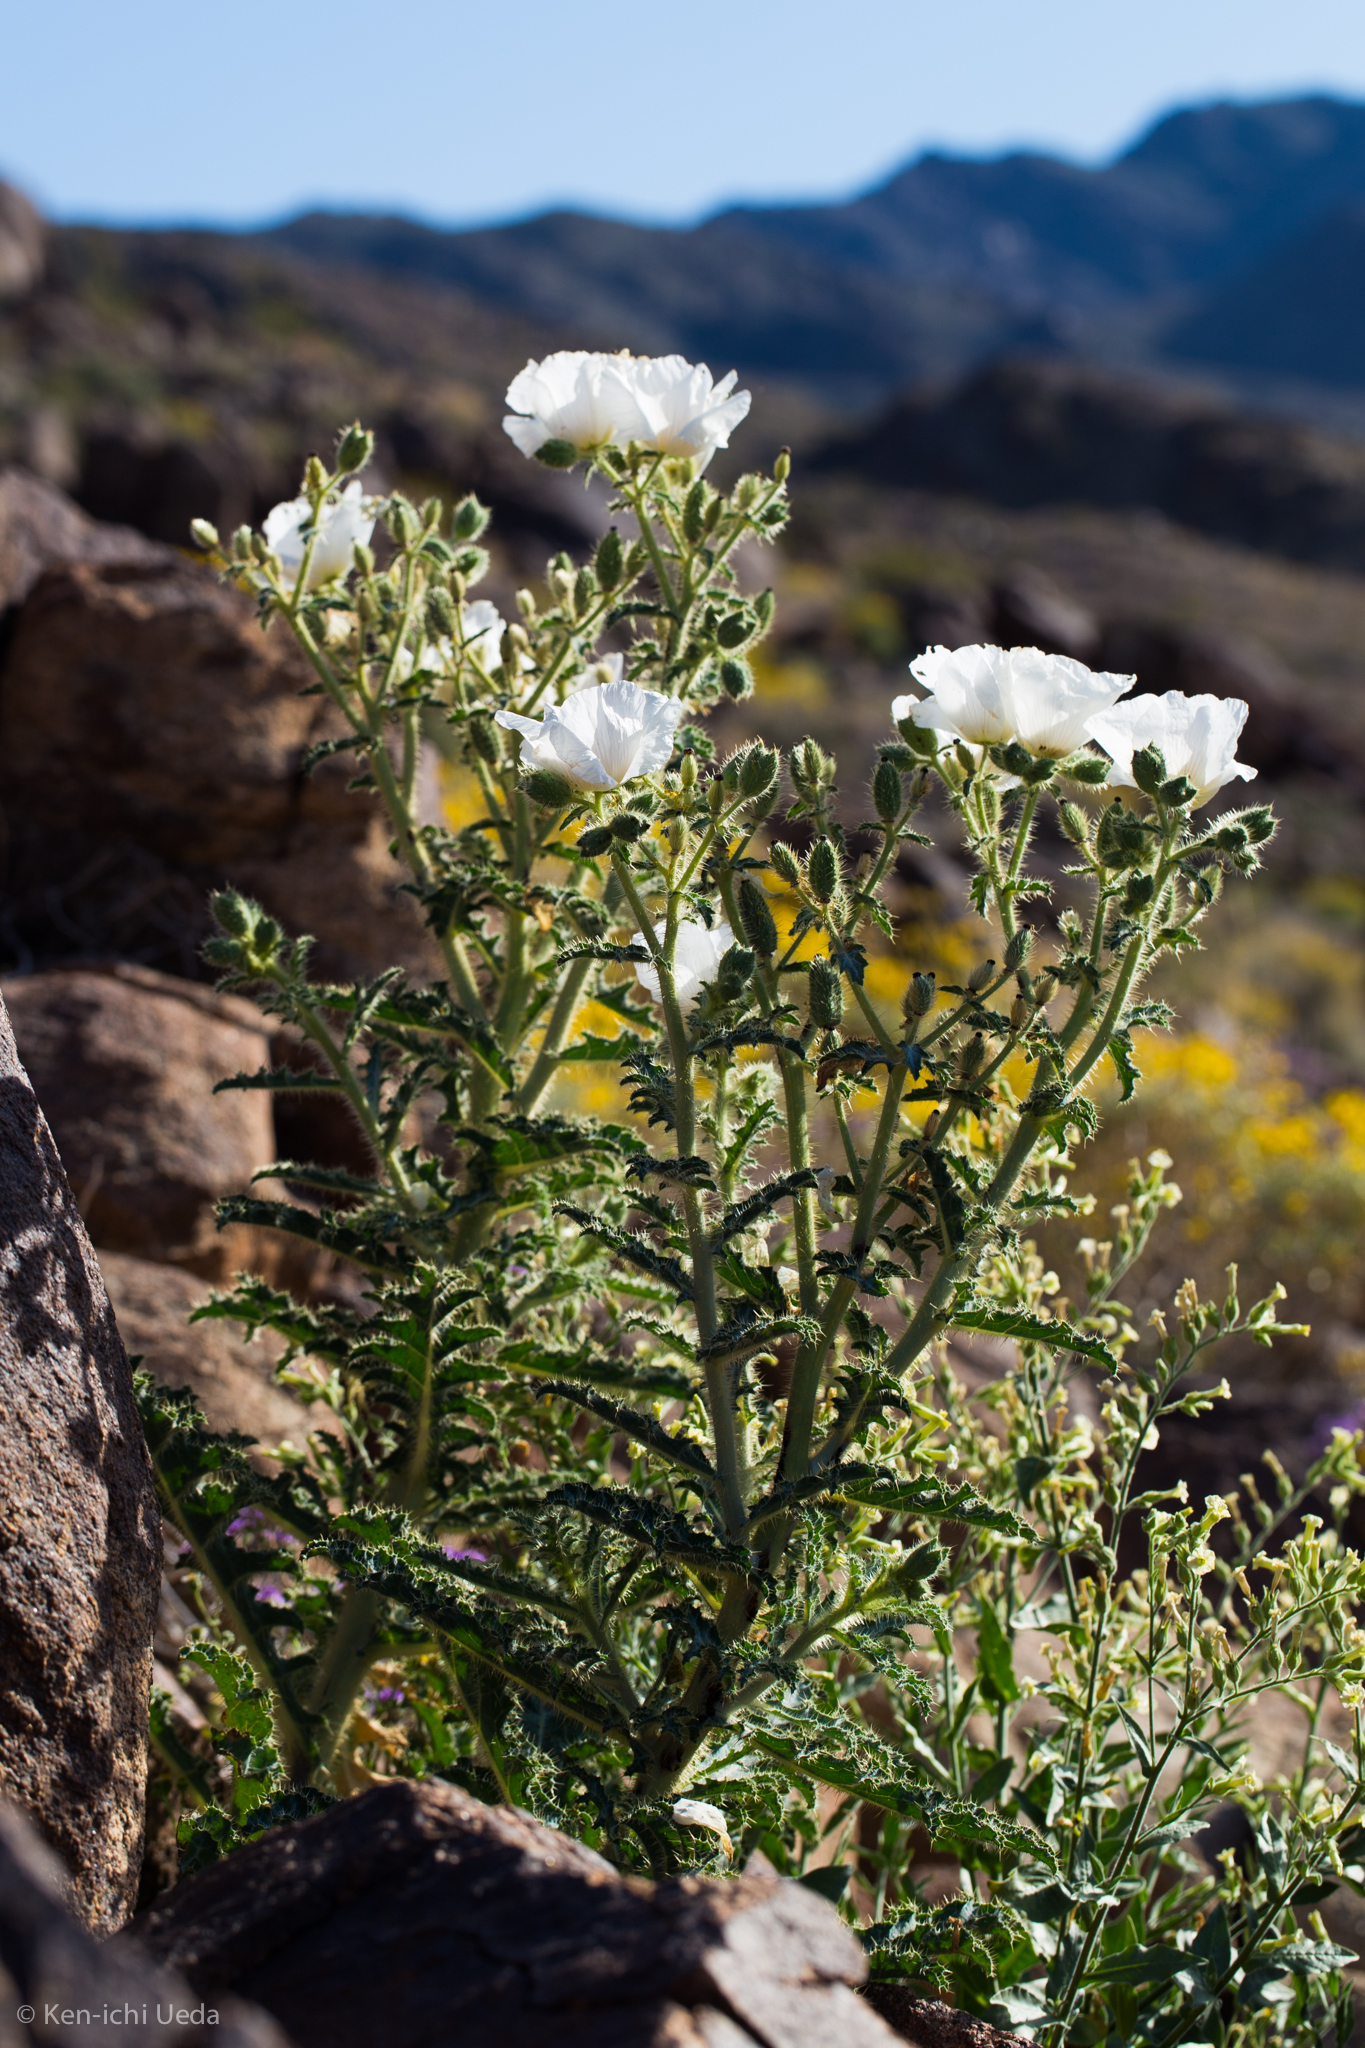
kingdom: Plantae
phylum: Tracheophyta
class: Magnoliopsida
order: Ranunculales
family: Papaveraceae
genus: Argemone
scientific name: Argemone munita
